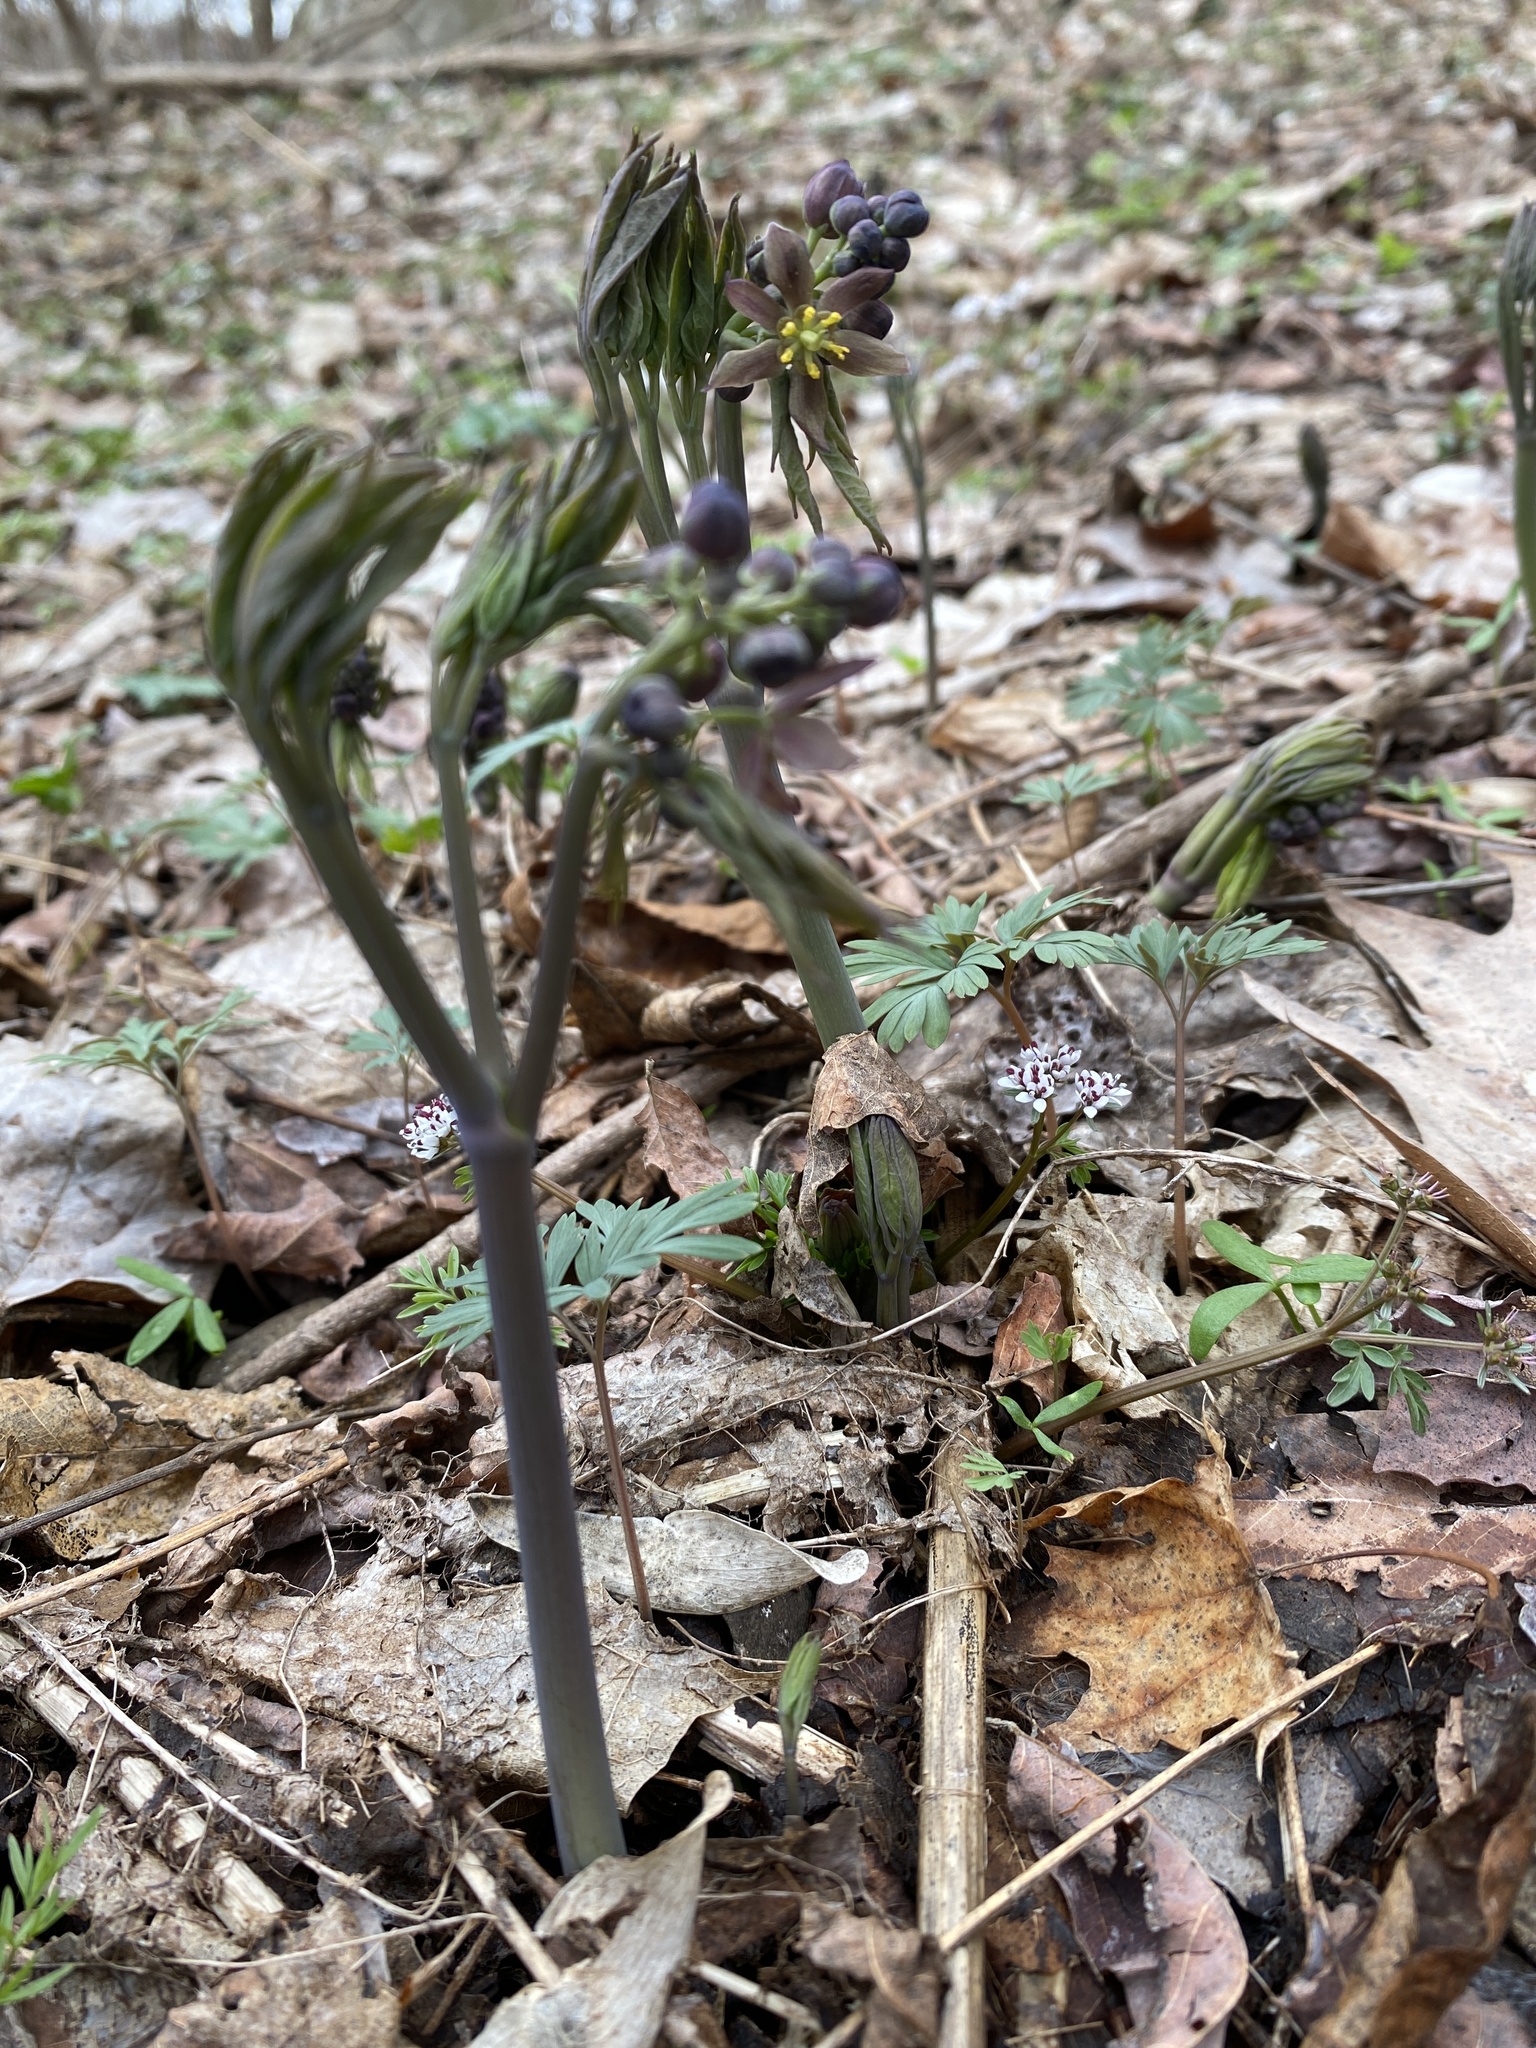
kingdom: Plantae
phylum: Tracheophyta
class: Magnoliopsida
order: Ranunculales
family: Berberidaceae
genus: Caulophyllum
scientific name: Caulophyllum giganteum
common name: Blue cohosh
